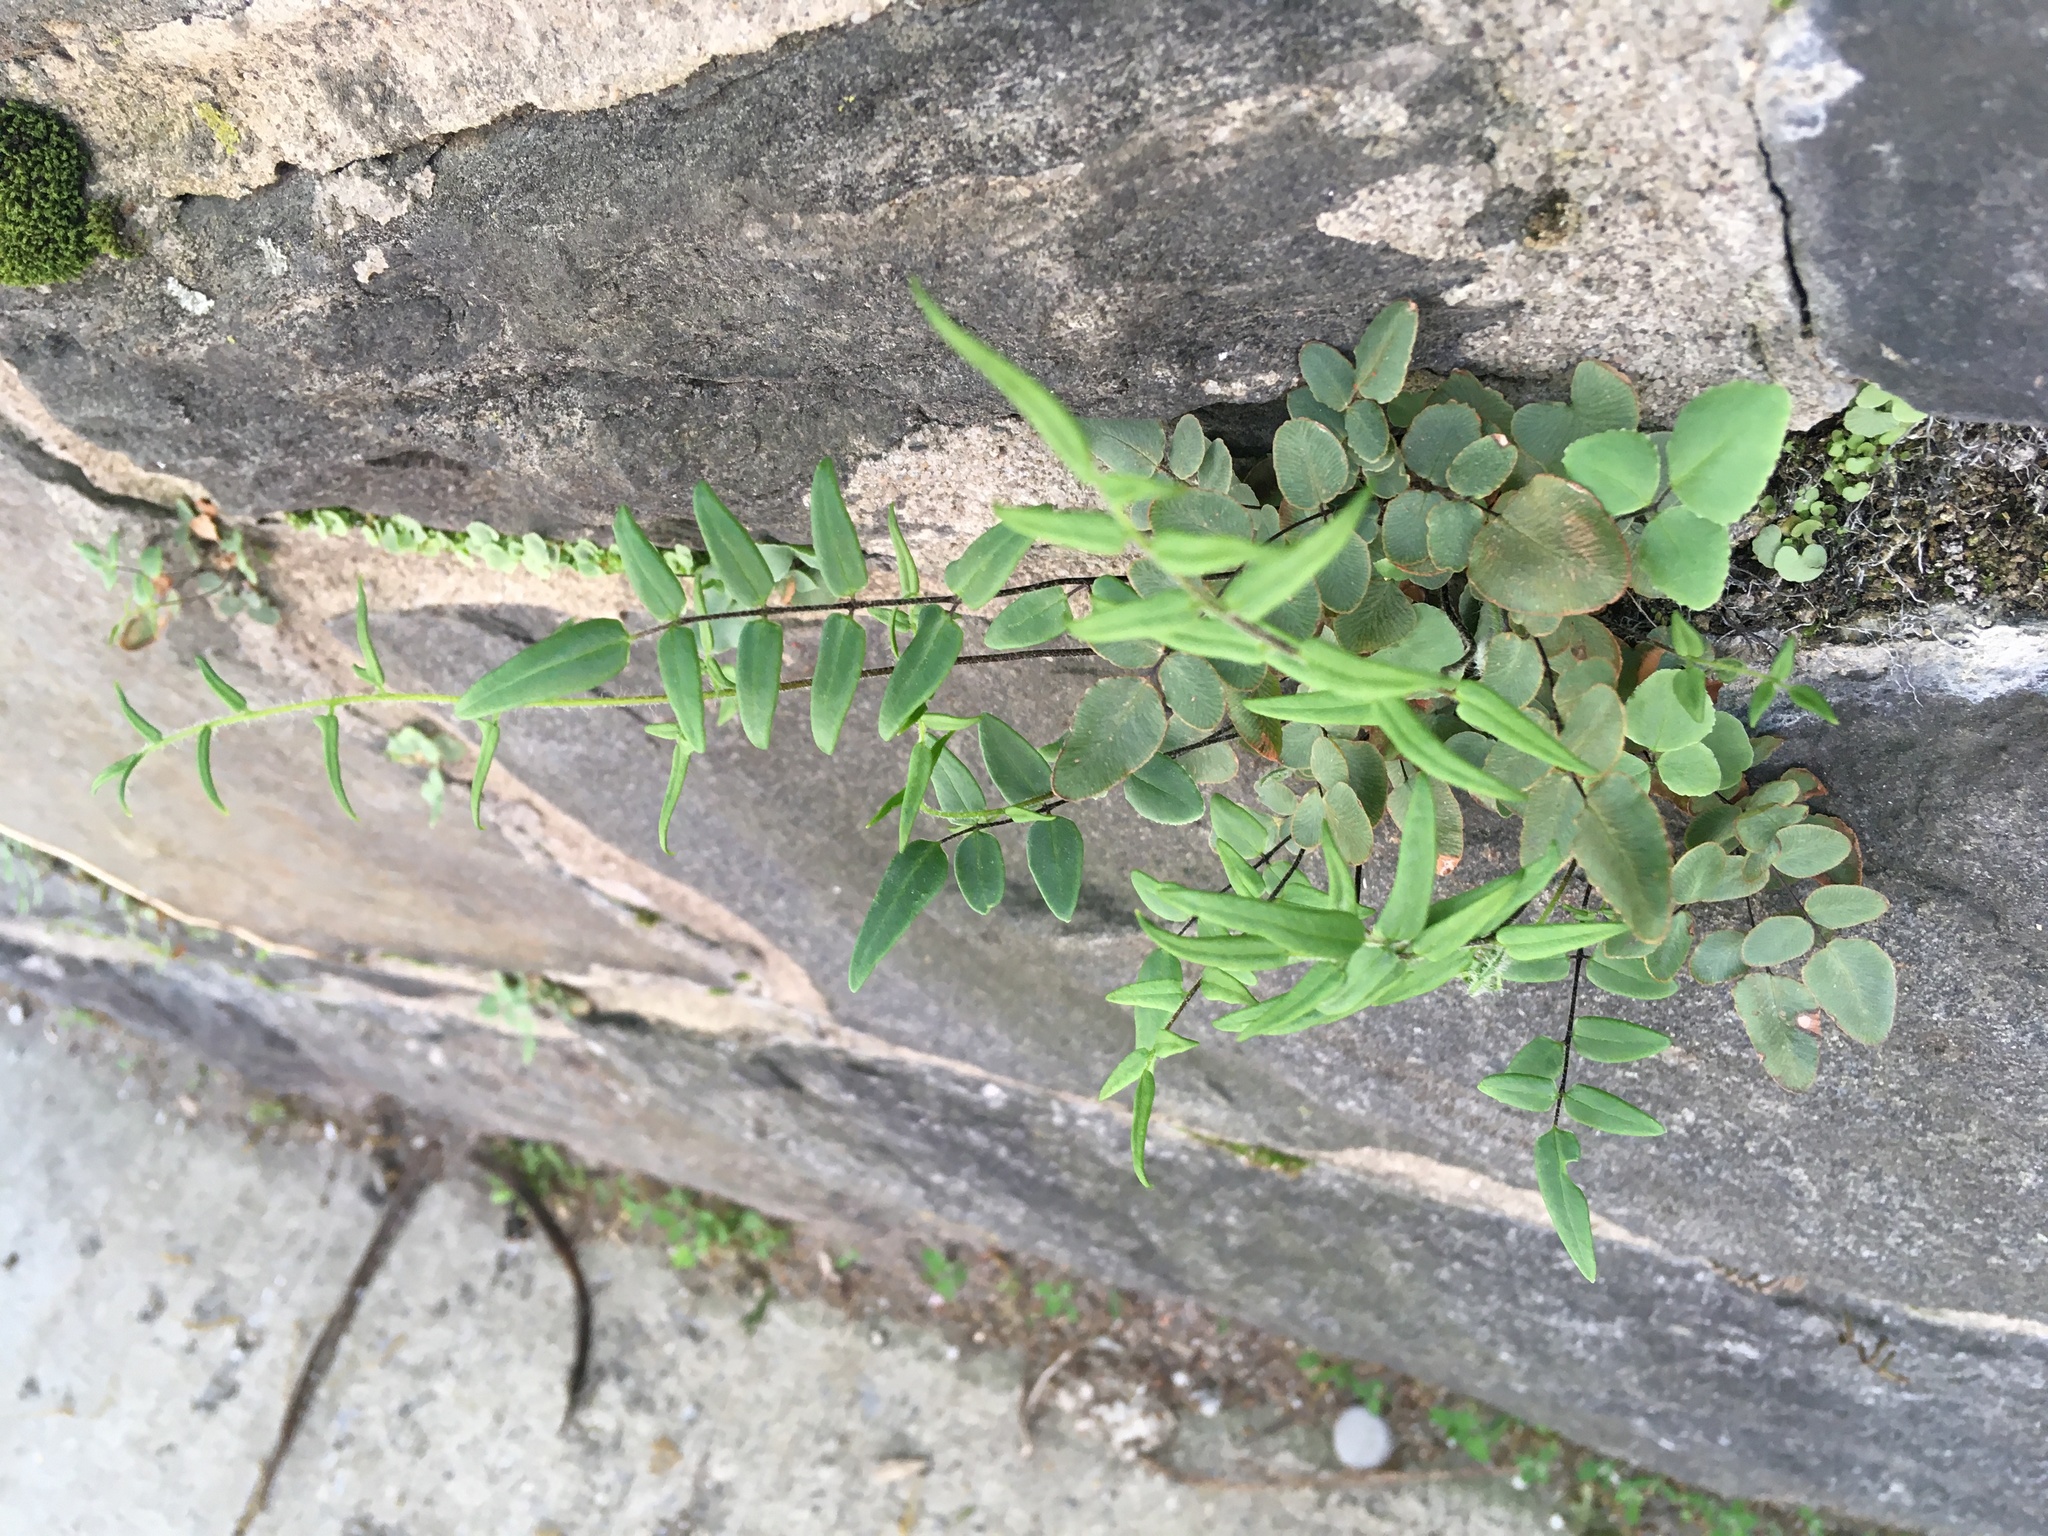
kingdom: Plantae
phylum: Tracheophyta
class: Polypodiopsida
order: Polypodiales
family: Pteridaceae
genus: Pellaea
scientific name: Pellaea atropurpurea
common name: Hairy cliffbrake
